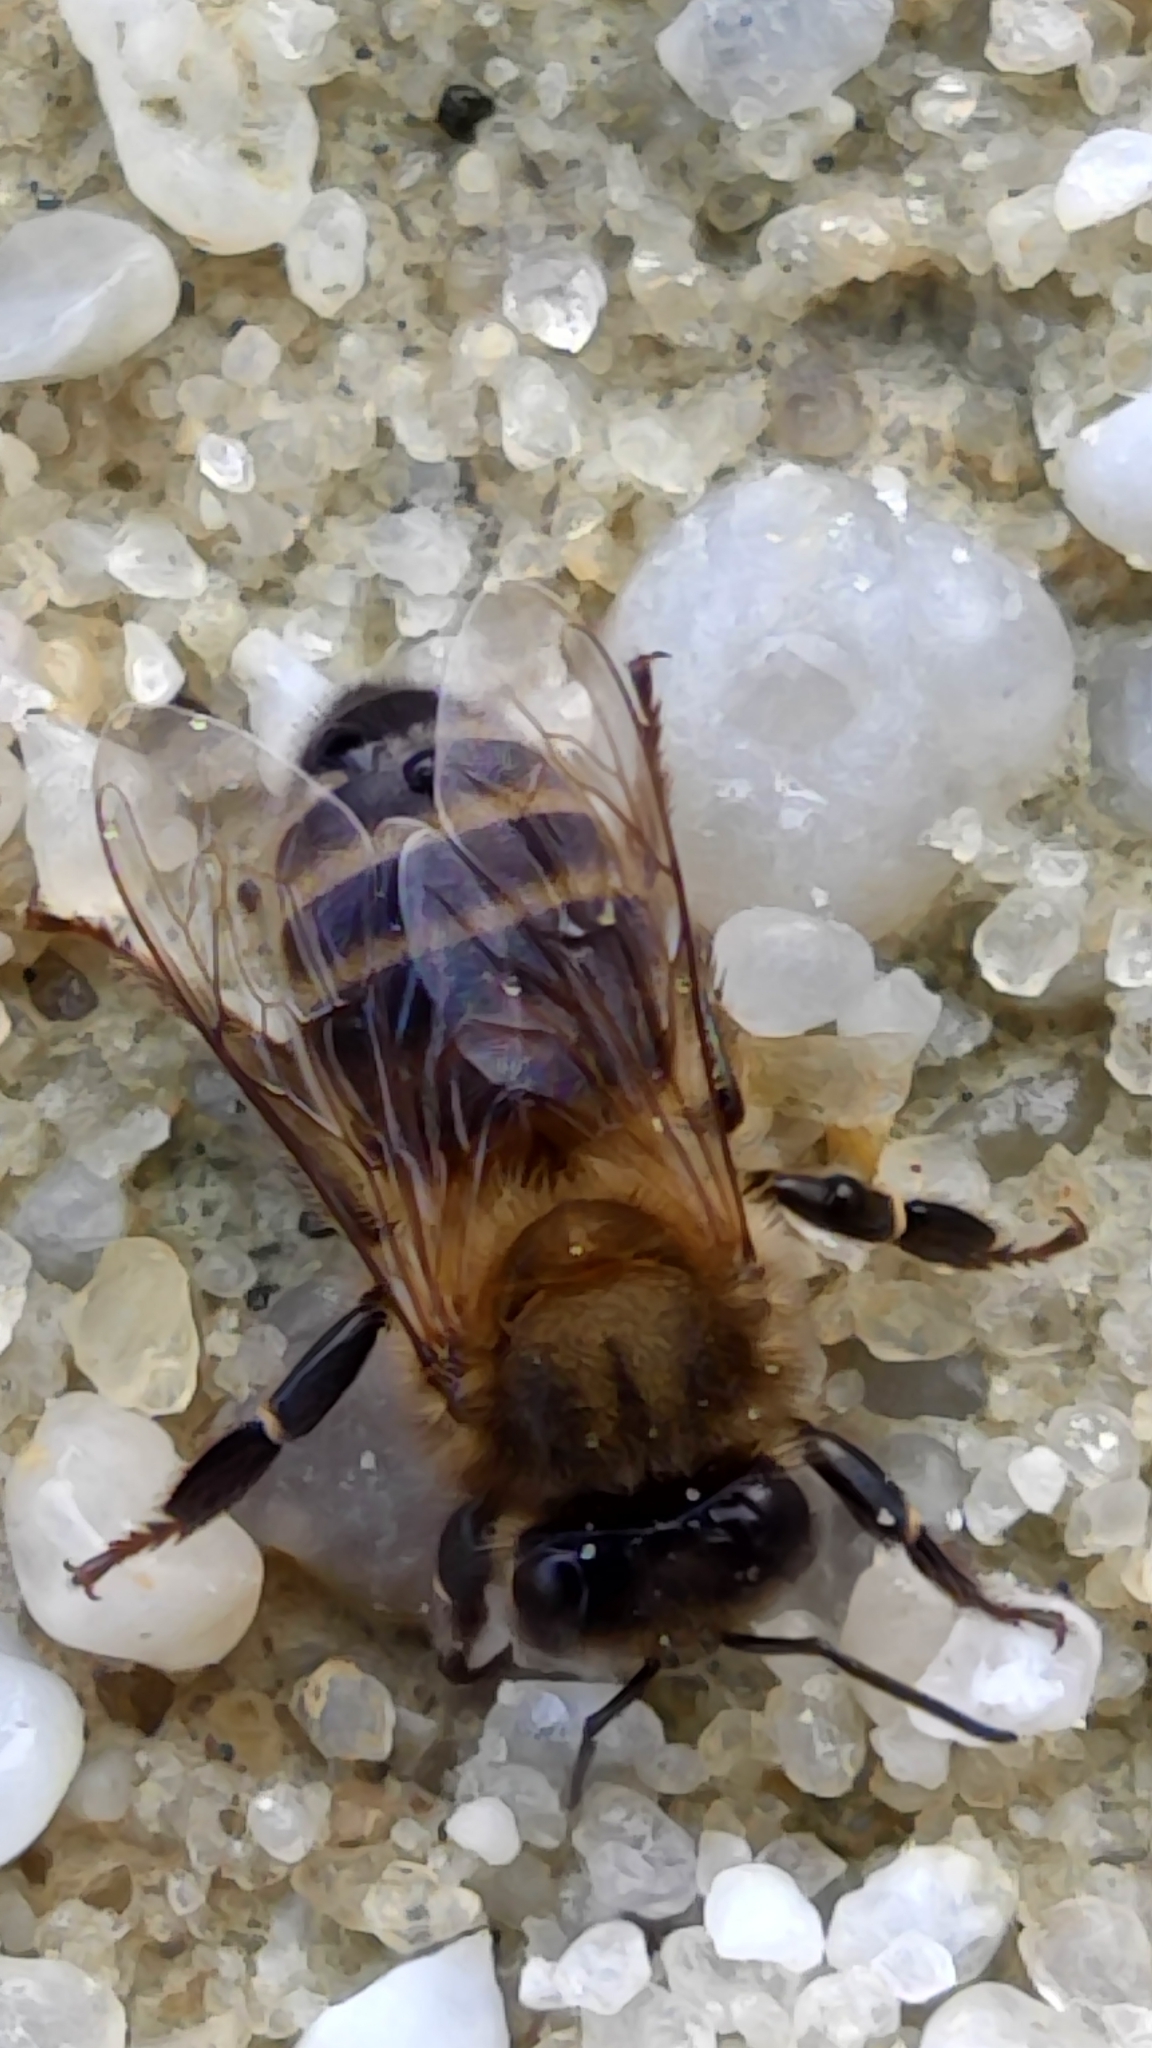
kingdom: Animalia
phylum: Arthropoda
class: Insecta
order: Hymenoptera
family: Apidae
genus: Apis
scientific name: Apis mellifera
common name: Honey bee
